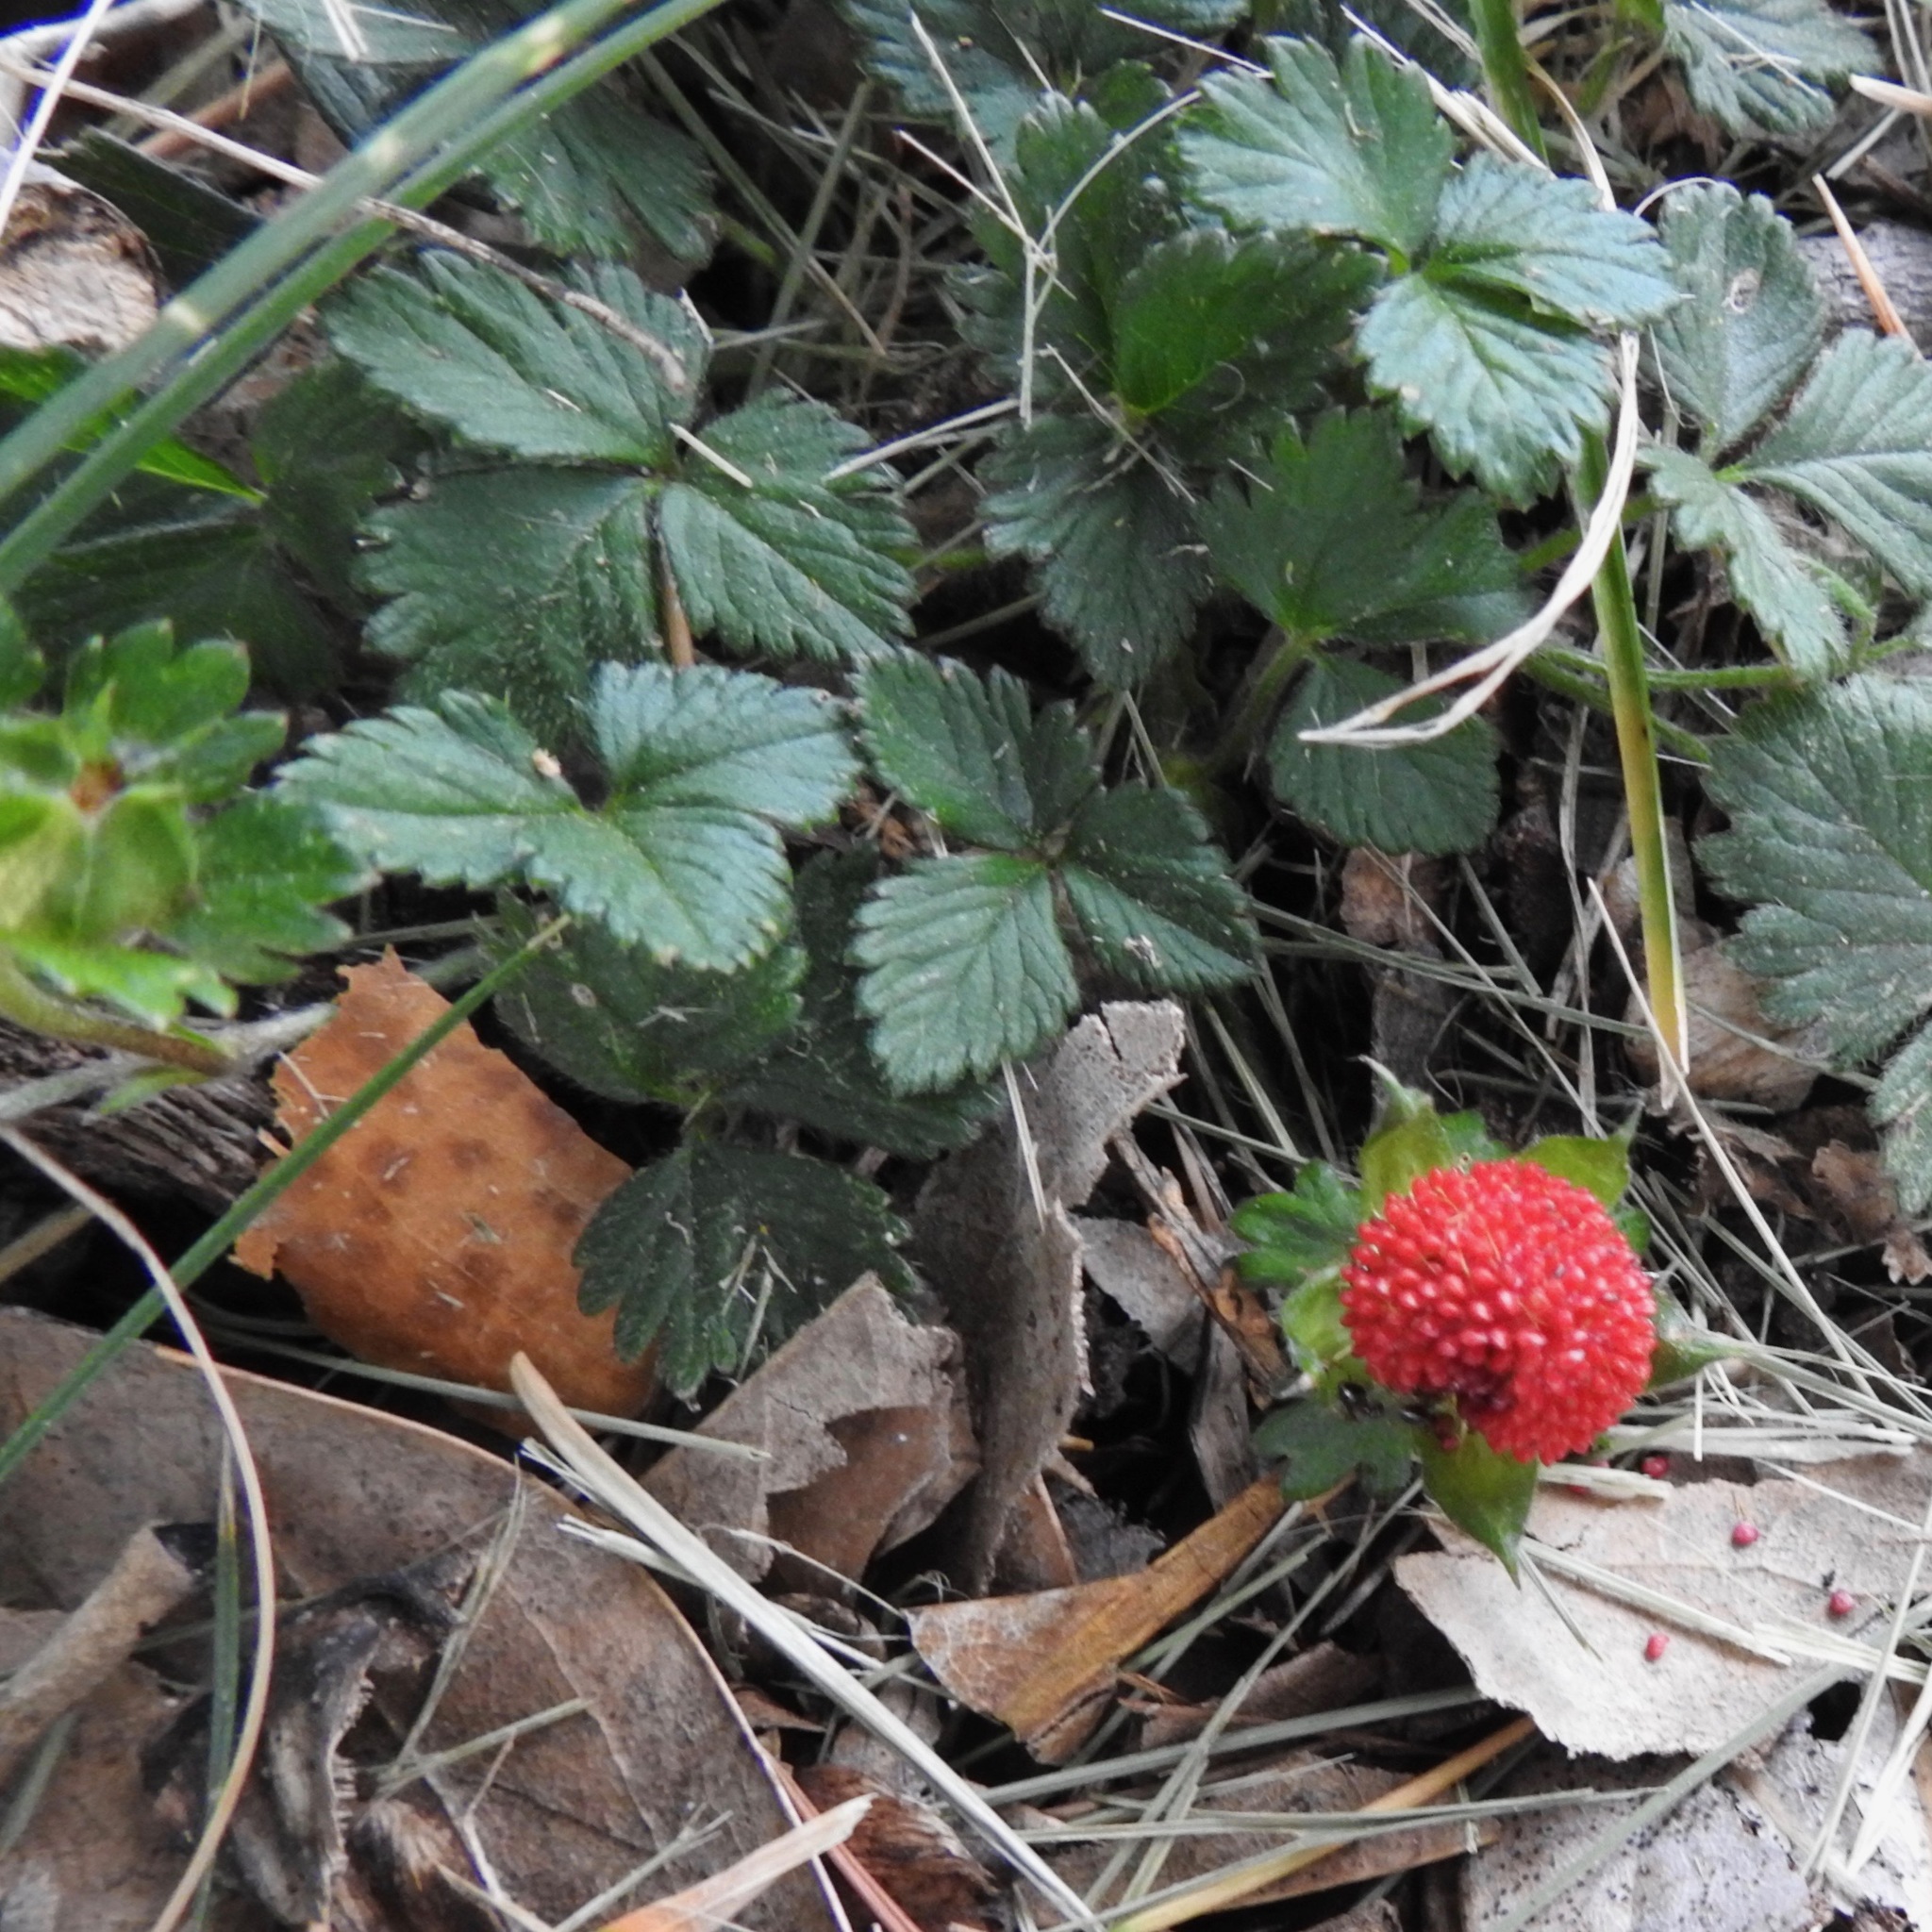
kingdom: Plantae
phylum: Tracheophyta
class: Magnoliopsida
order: Rosales
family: Rosaceae
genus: Potentilla
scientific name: Potentilla indica
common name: Yellow-flowered strawberry
